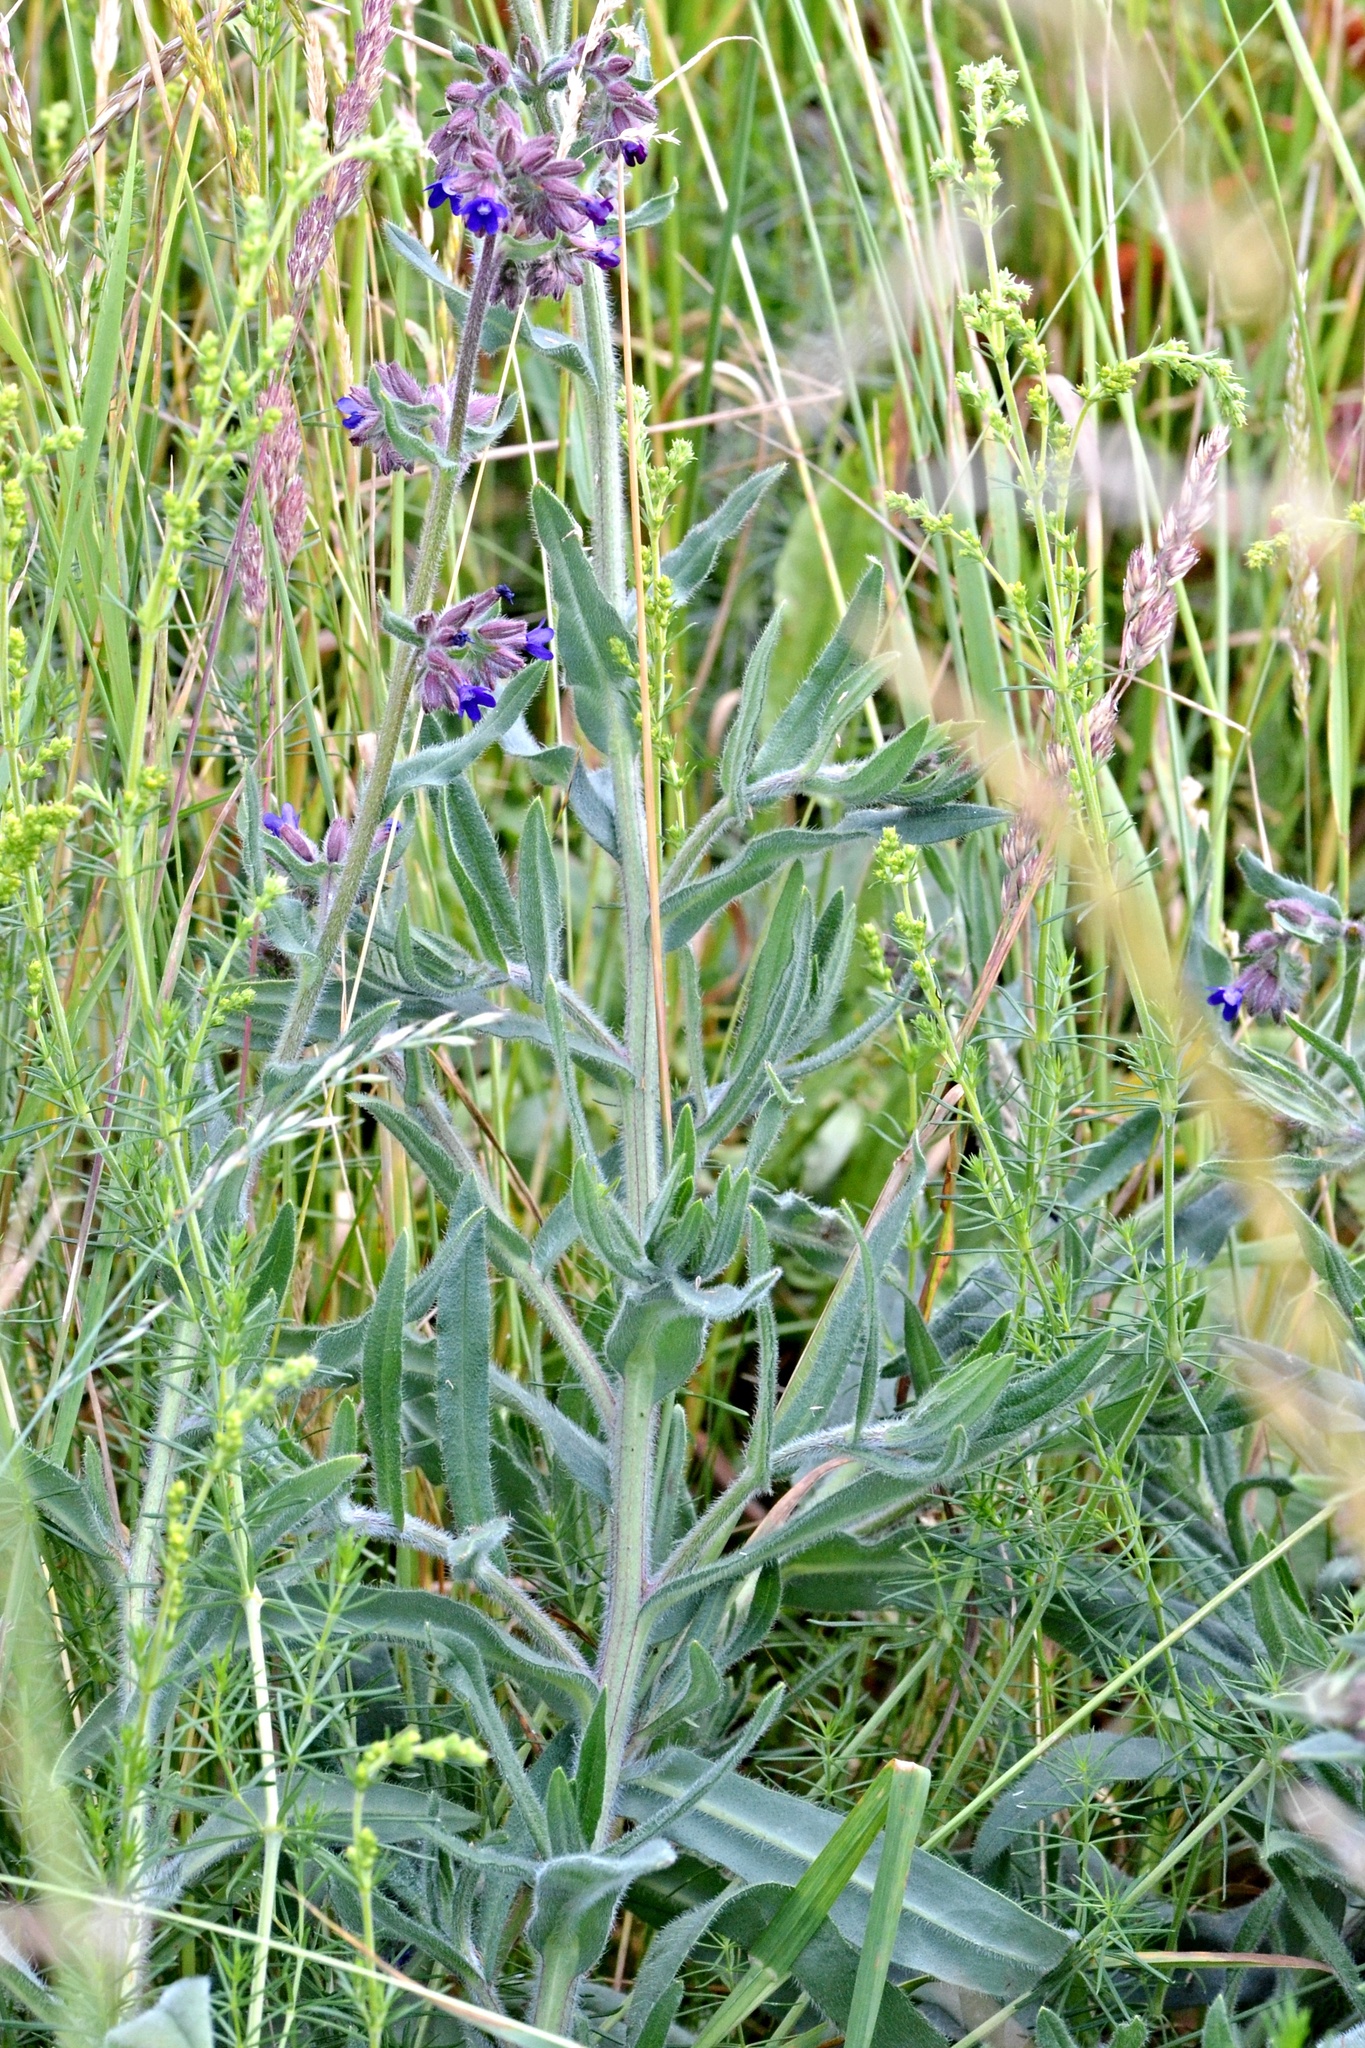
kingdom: Plantae
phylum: Tracheophyta
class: Magnoliopsida
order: Boraginales
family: Boraginaceae
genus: Anchusa
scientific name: Anchusa officinalis
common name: Alkanet
